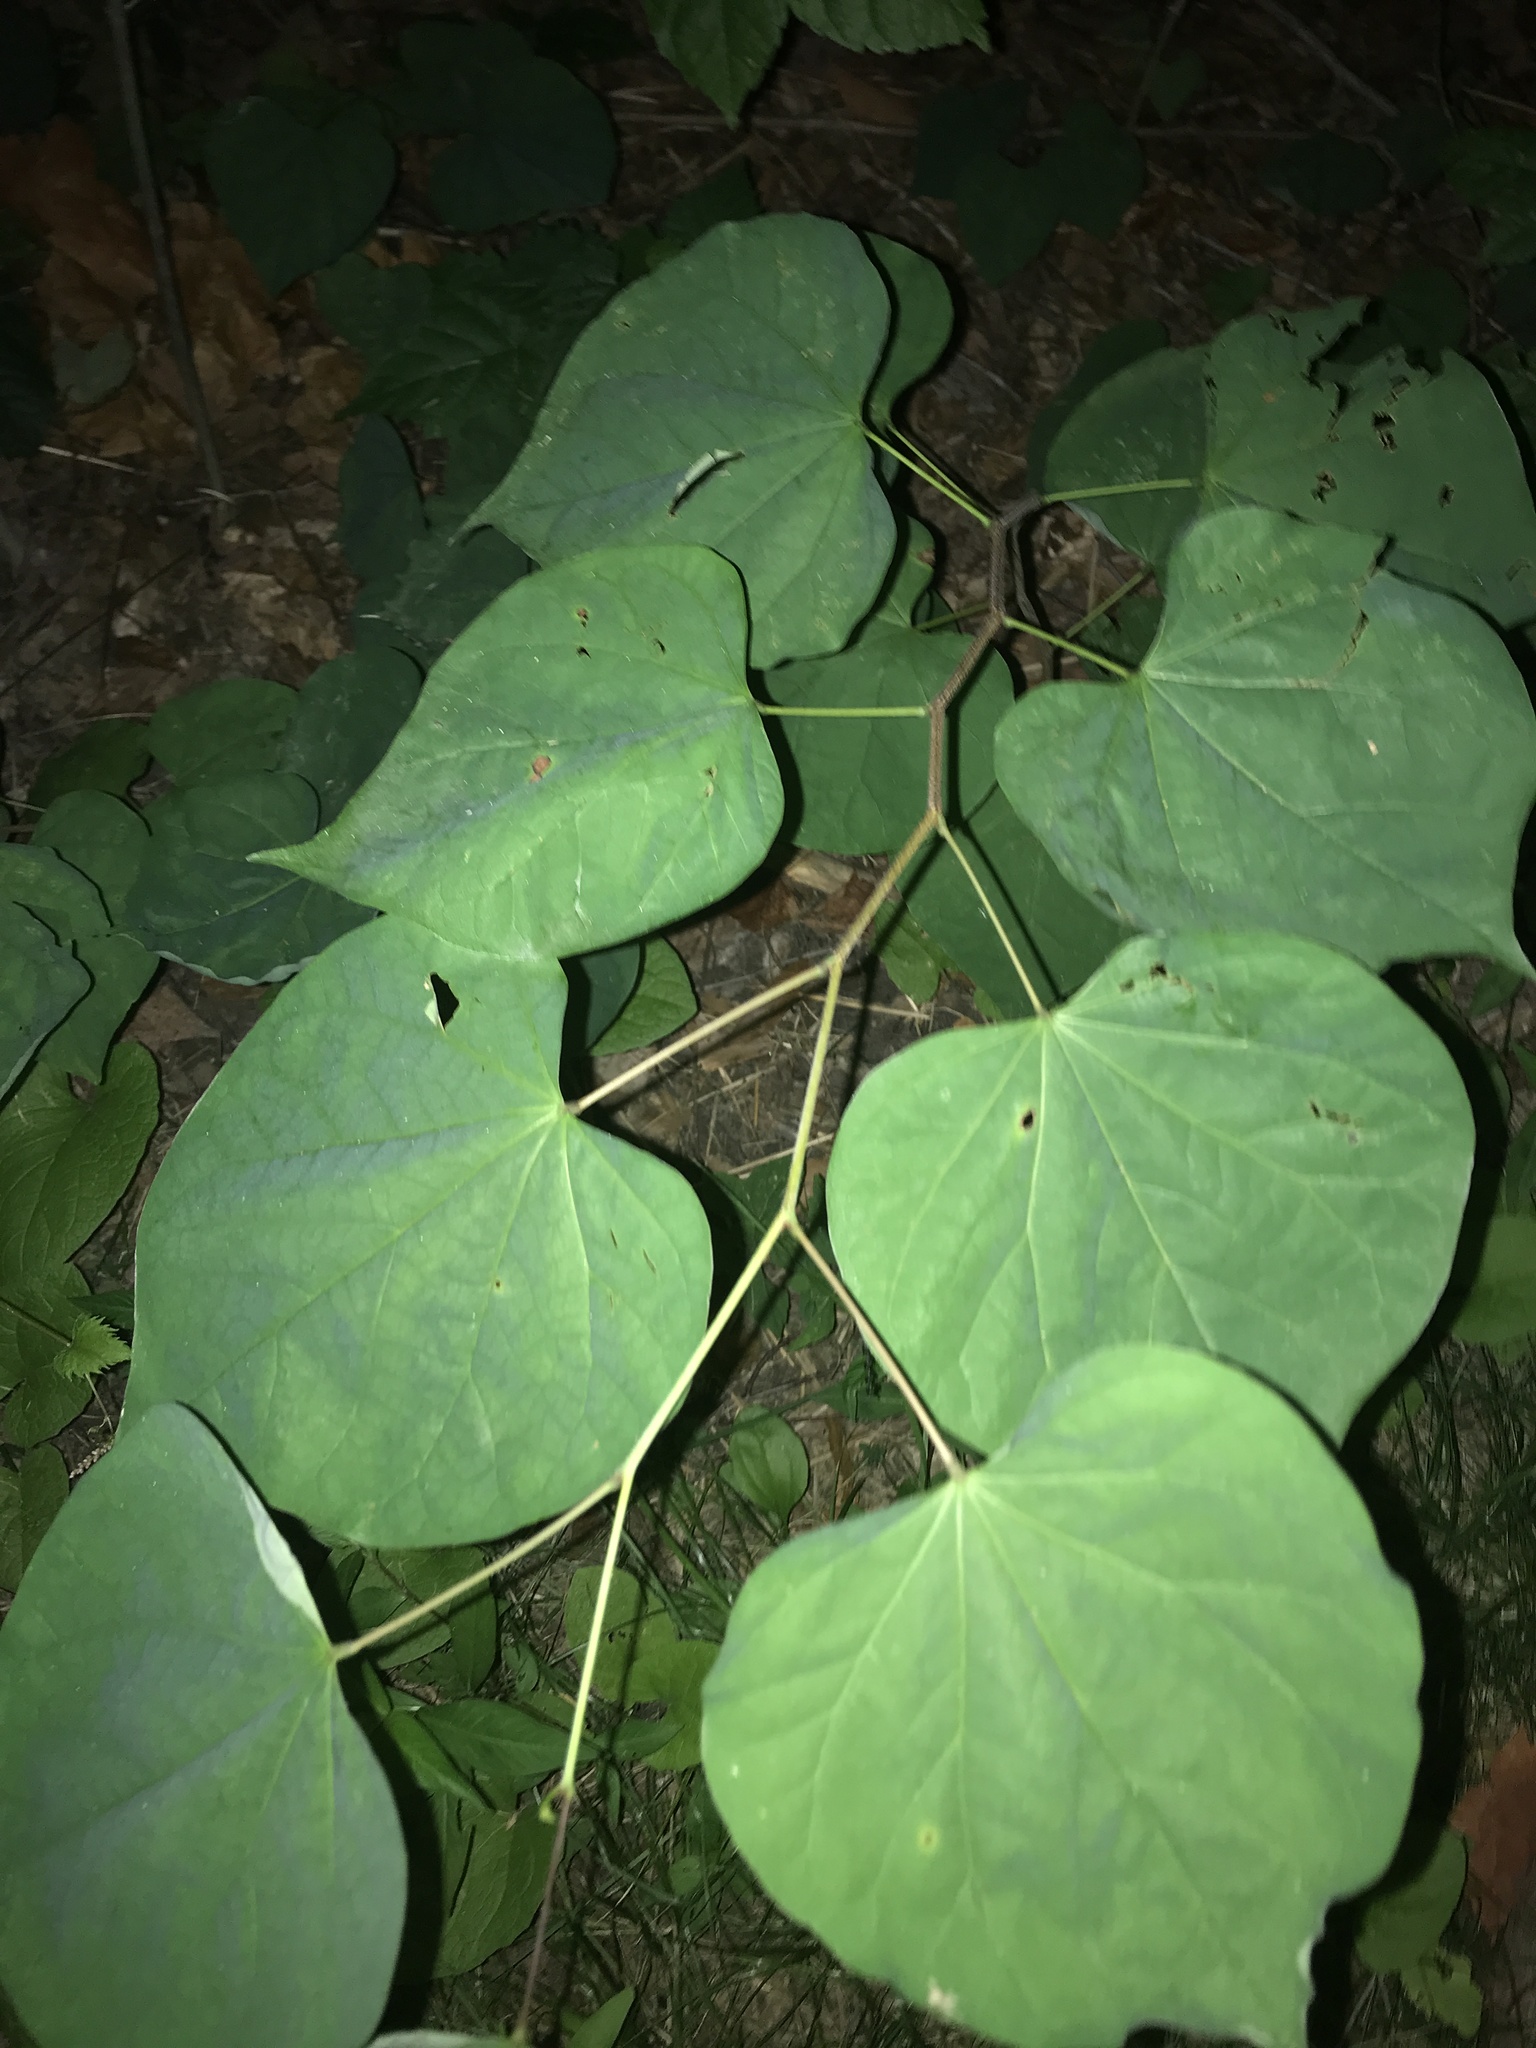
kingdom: Plantae
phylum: Tracheophyta
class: Magnoliopsida
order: Fabales
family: Fabaceae
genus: Cercis
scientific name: Cercis canadensis
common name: Eastern redbud
